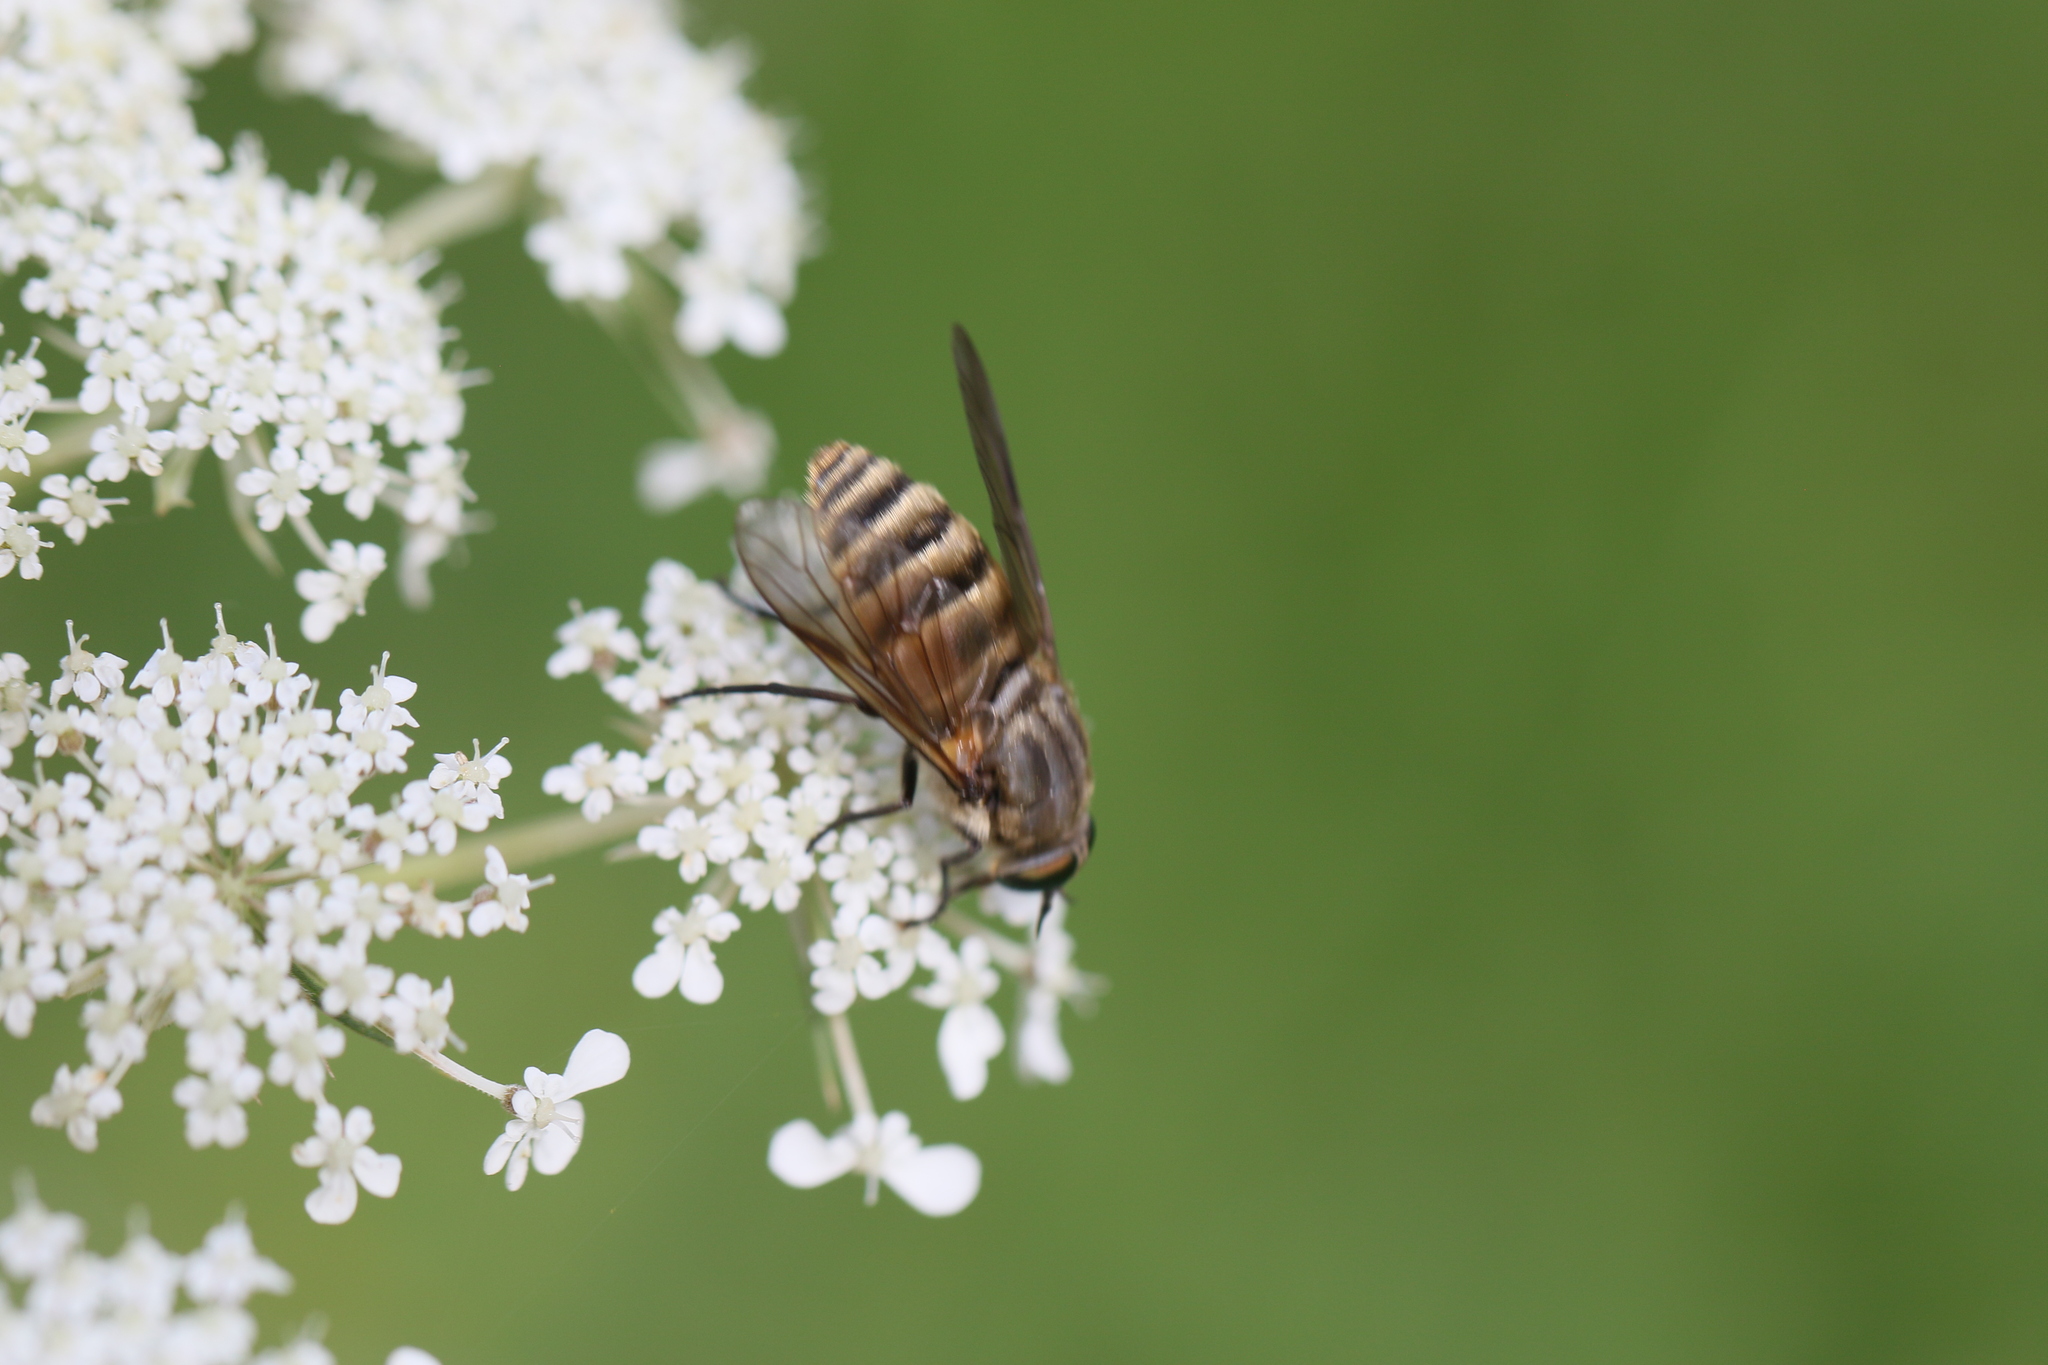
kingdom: Animalia
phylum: Arthropoda
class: Insecta
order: Diptera
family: Tabanidae
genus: Stonemyia
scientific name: Stonemyia tranquilla
